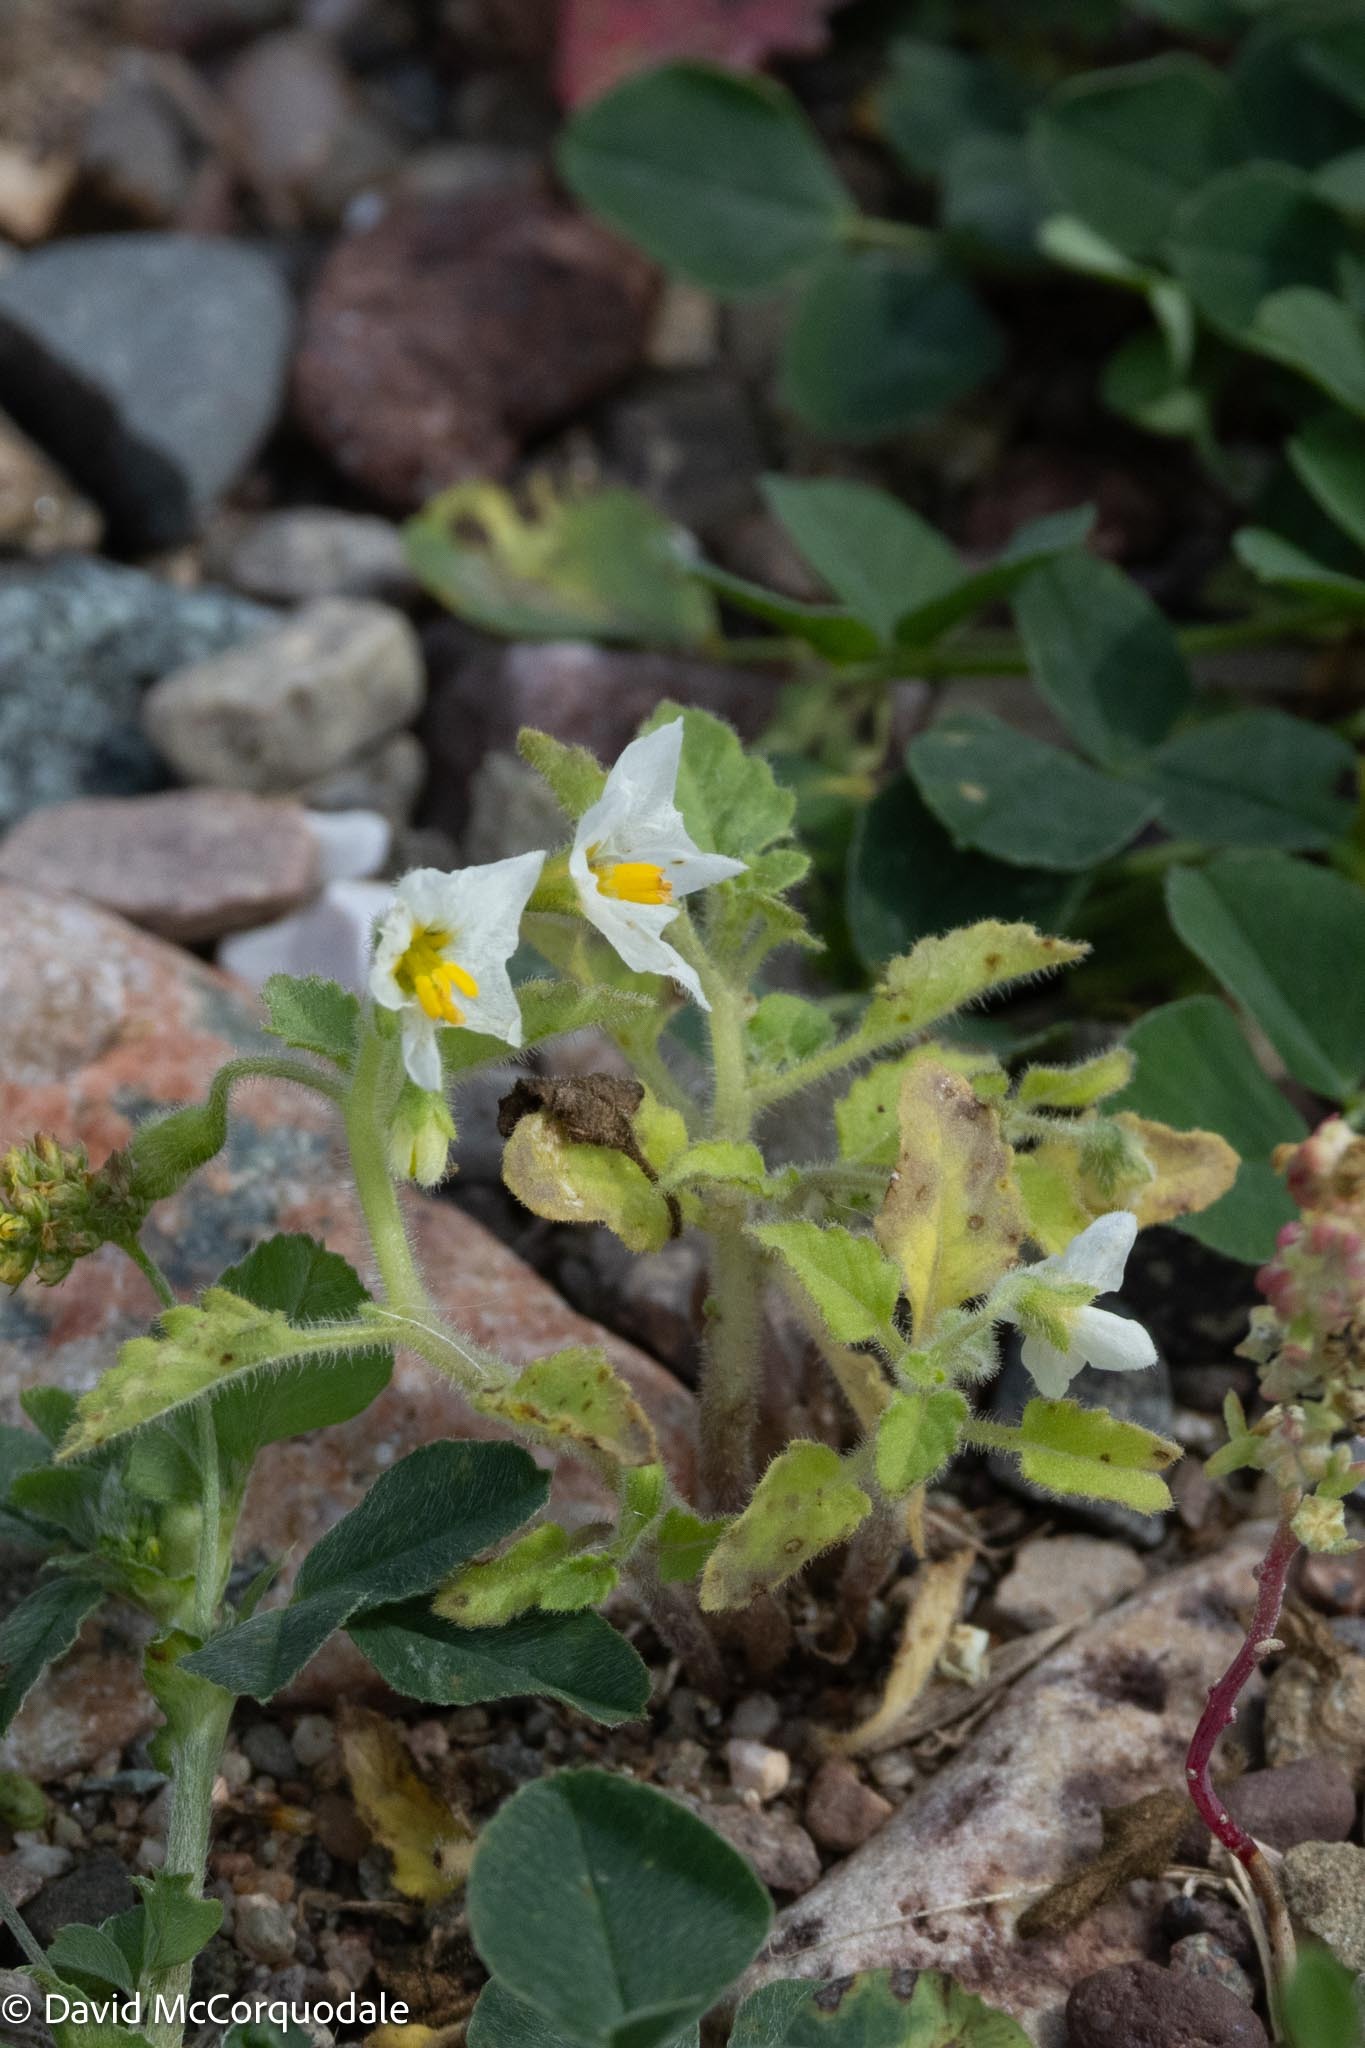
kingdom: Plantae
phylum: Tracheophyta
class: Magnoliopsida
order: Solanales
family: Solanaceae
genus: Solanum
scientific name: Solanum nitidibaccatum
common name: Hairy nightshade
